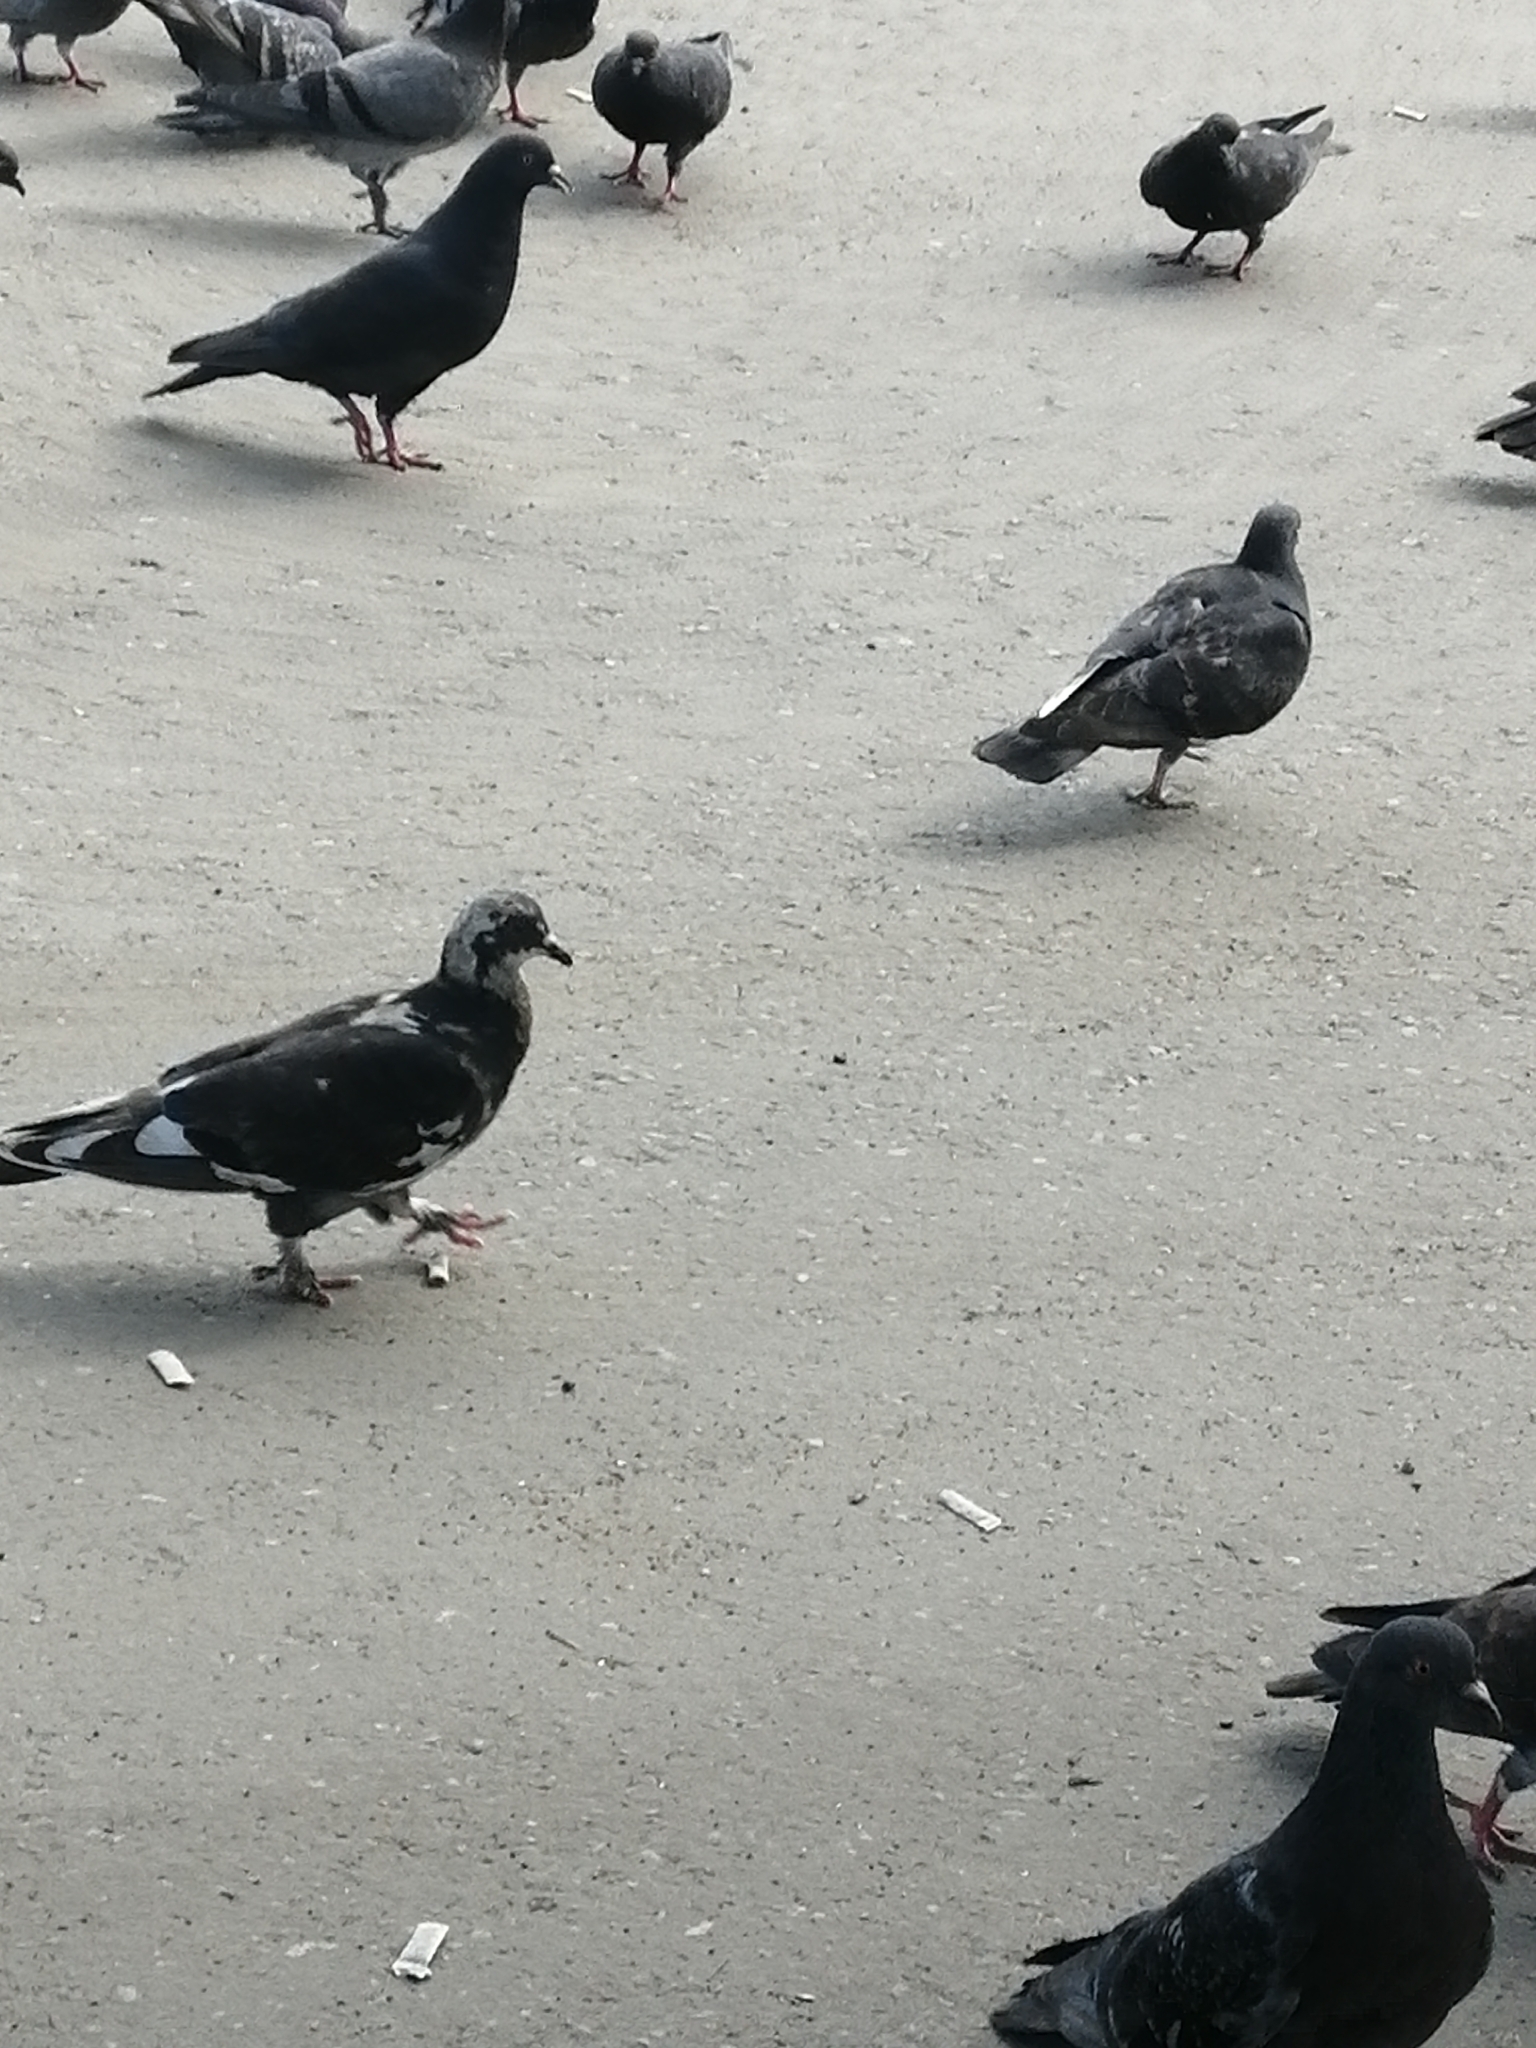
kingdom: Animalia
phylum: Chordata
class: Aves
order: Columbiformes
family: Columbidae
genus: Columba
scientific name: Columba livia
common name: Rock pigeon
